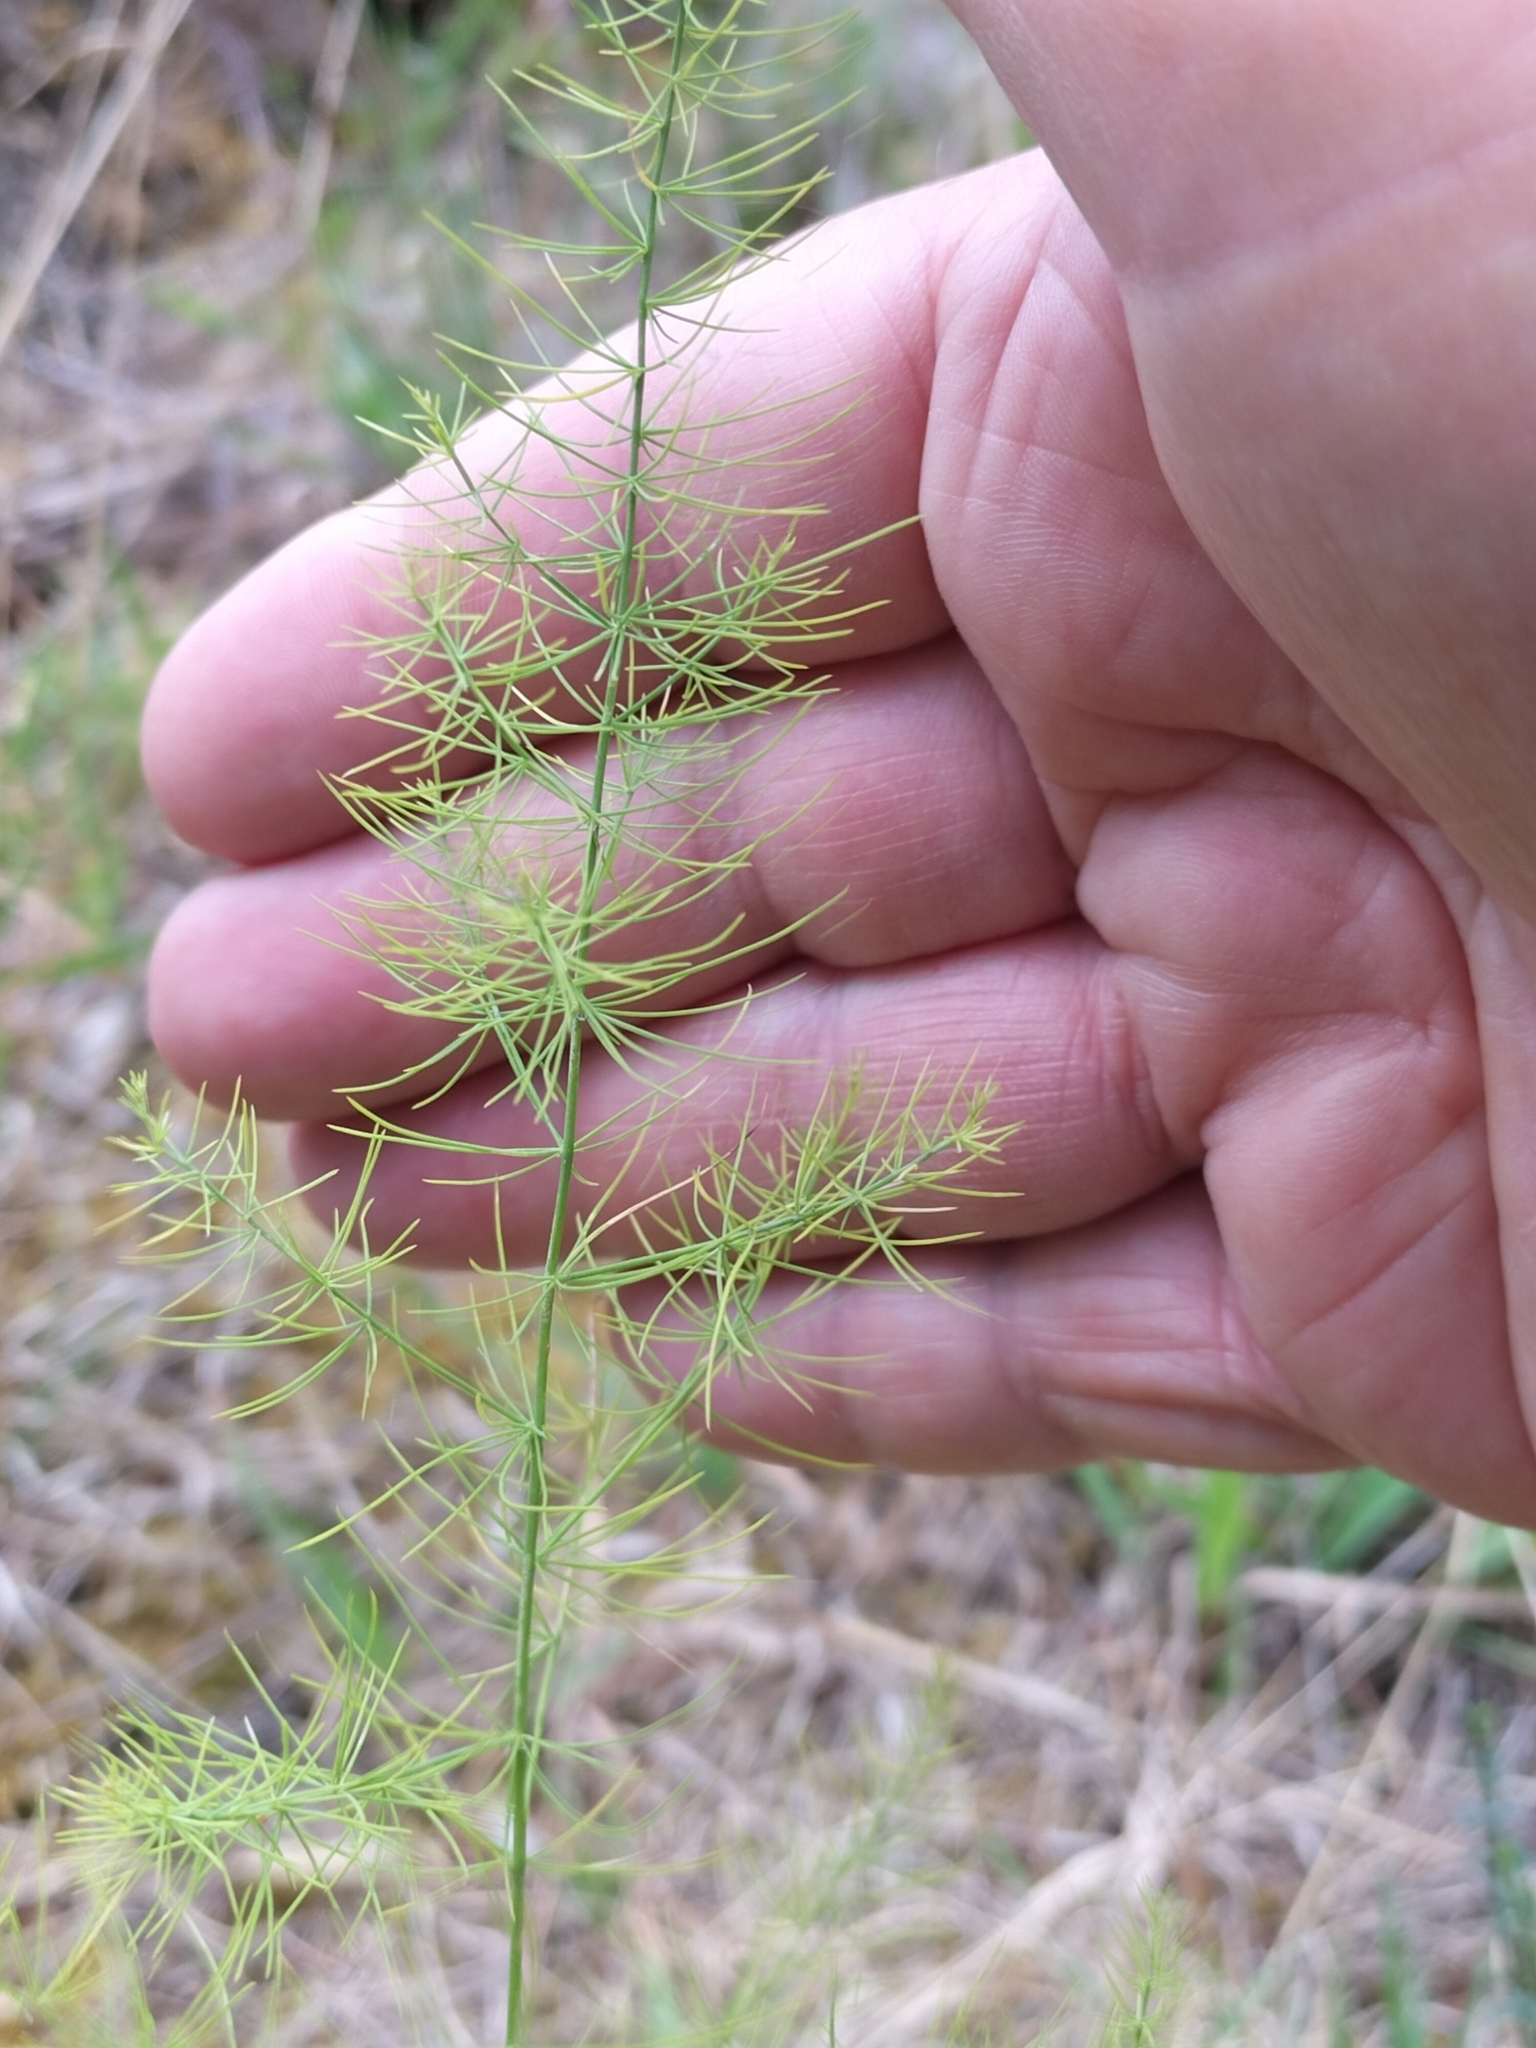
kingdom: Plantae
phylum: Tracheophyta
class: Liliopsida
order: Asparagales
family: Asparagaceae
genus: Asparagus
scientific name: Asparagus officinalis
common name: Garden asparagus
